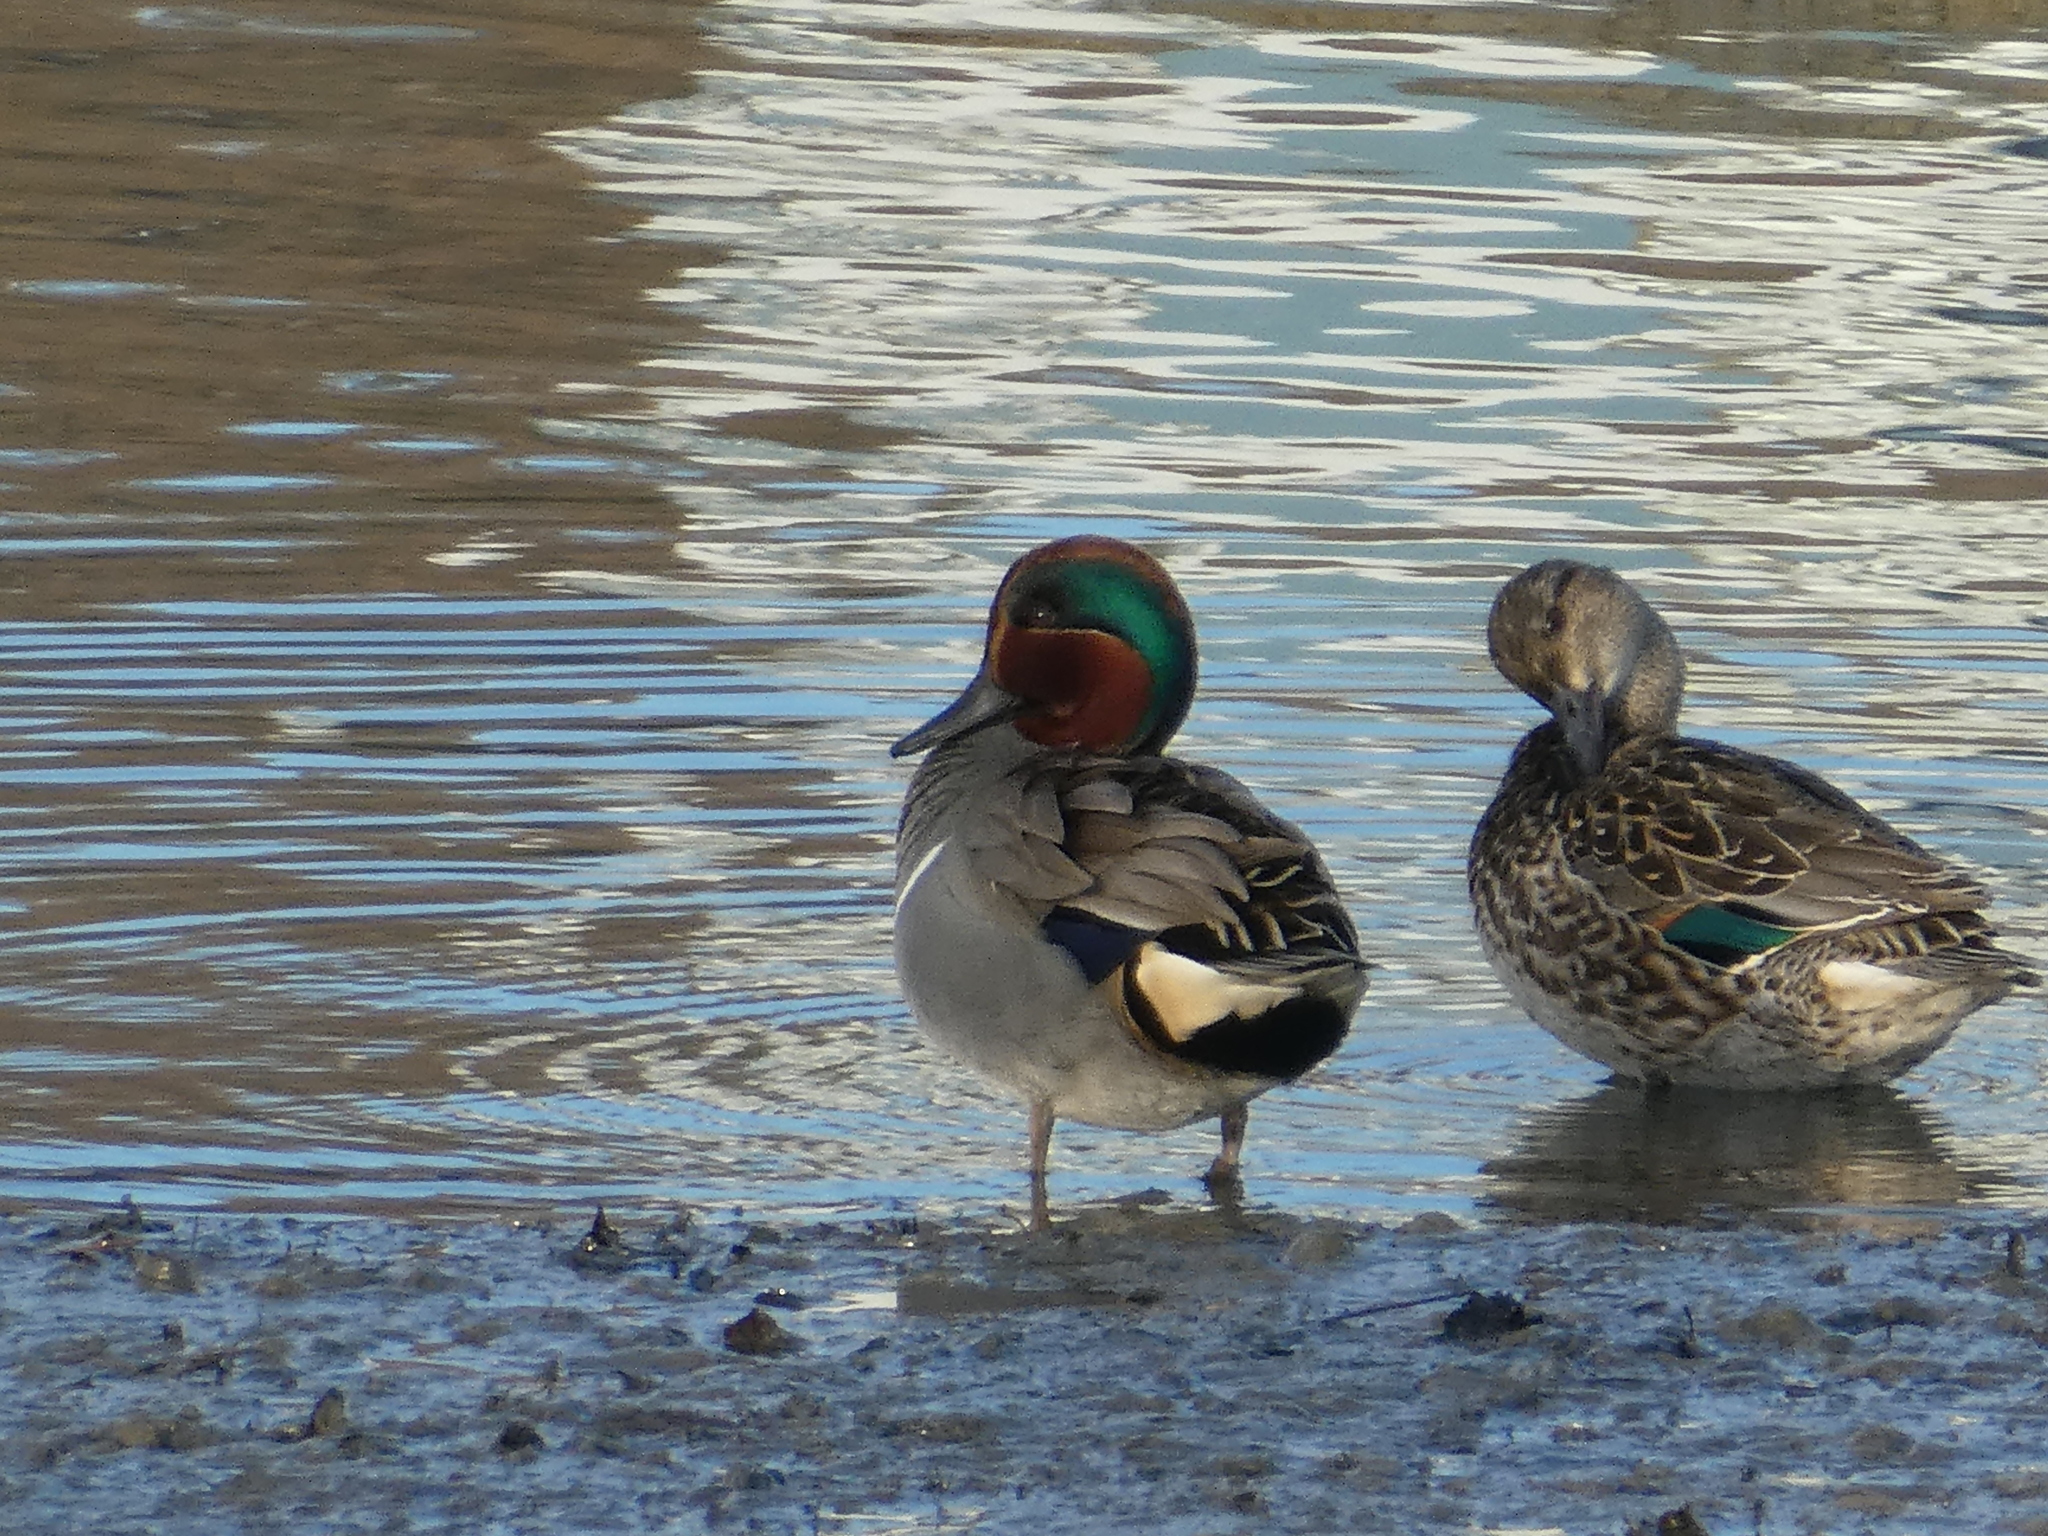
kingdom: Animalia
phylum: Chordata
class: Aves
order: Anseriformes
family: Anatidae
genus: Anas
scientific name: Anas crecca
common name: Eurasian teal
